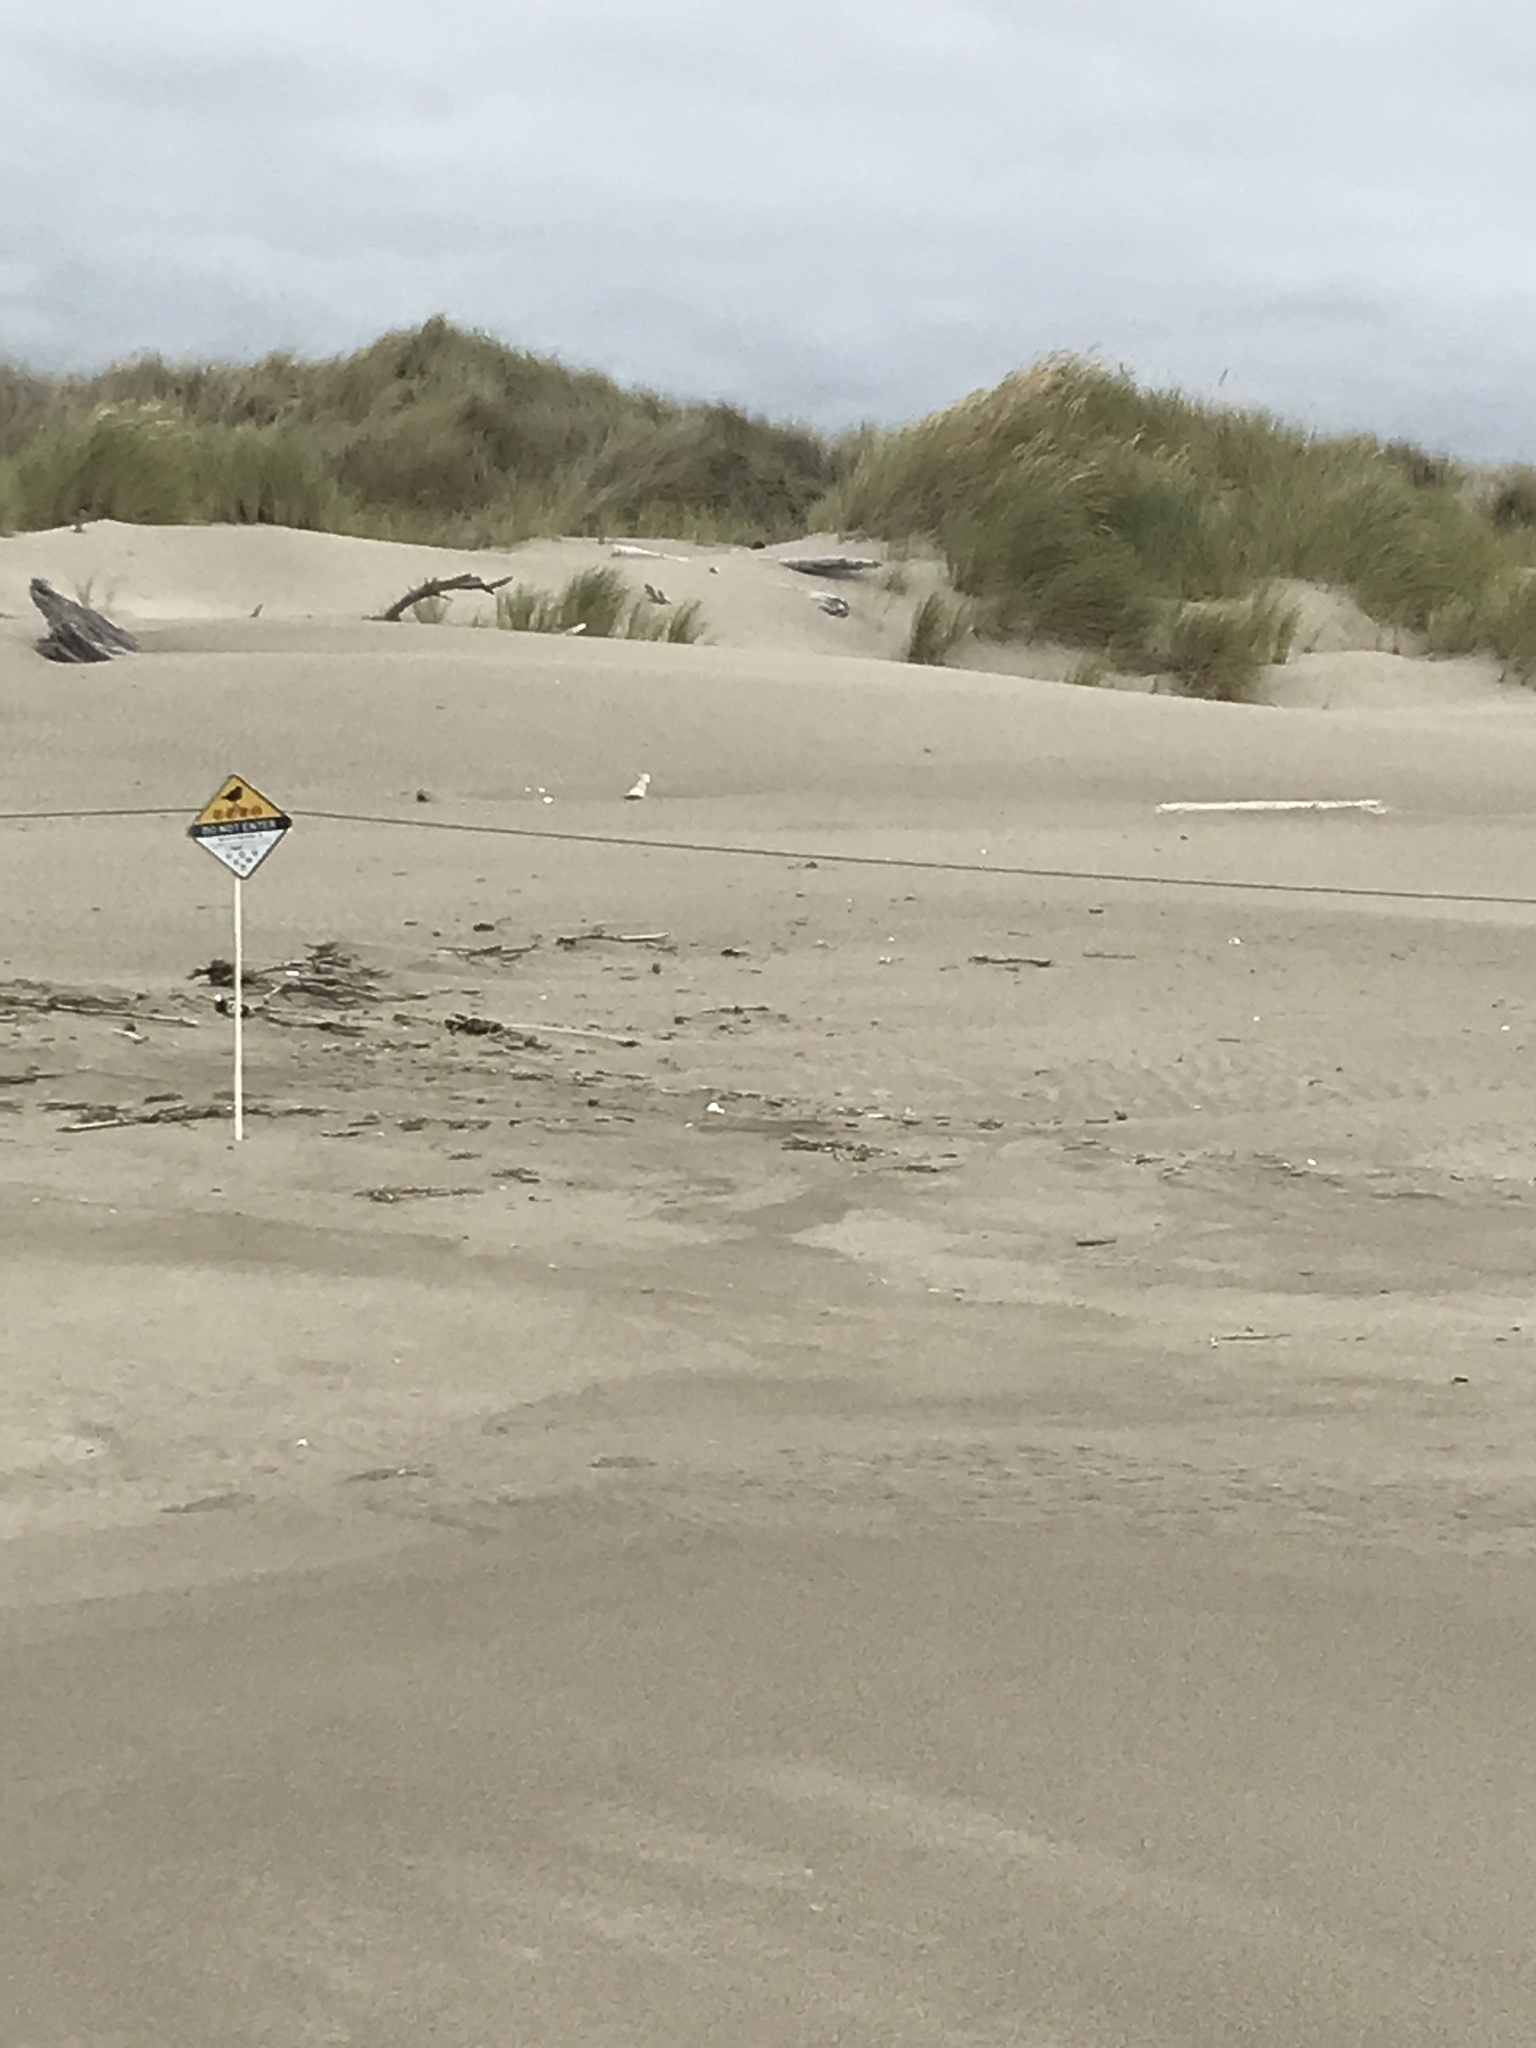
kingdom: Animalia
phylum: Chordata
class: Aves
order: Charadriiformes
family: Charadriidae
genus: Anarhynchus
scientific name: Anarhynchus
